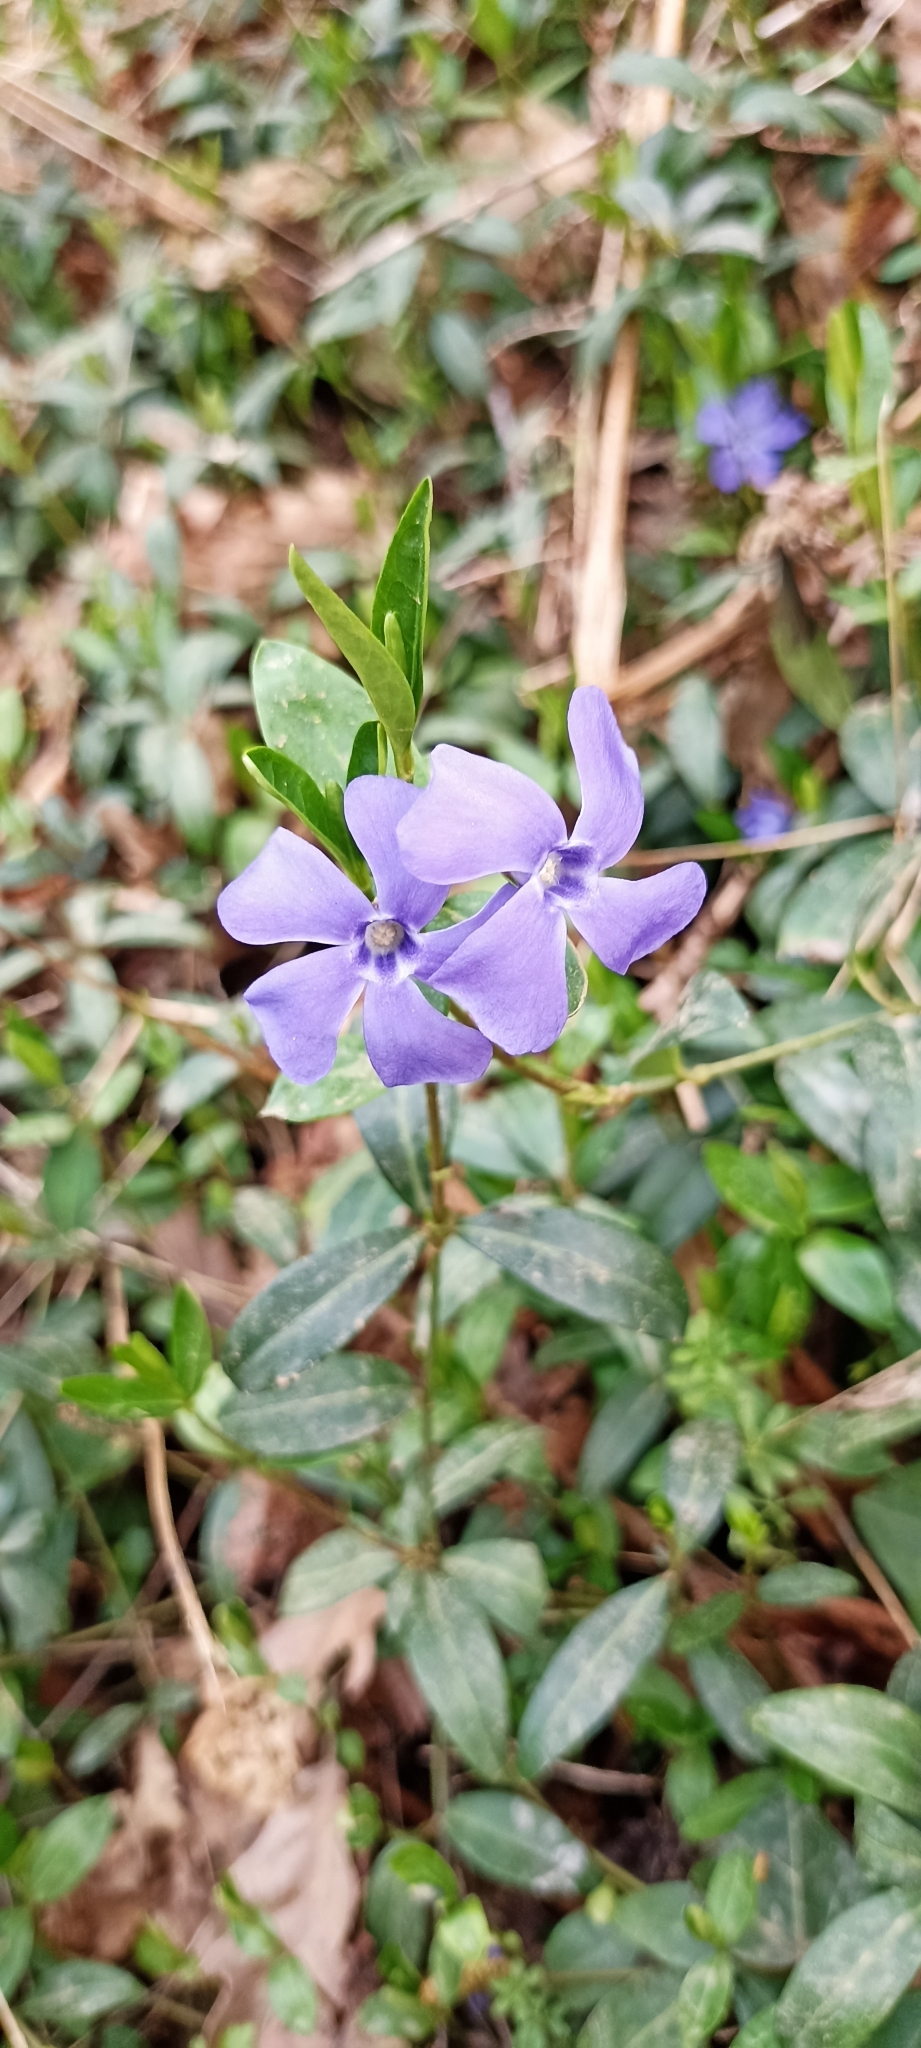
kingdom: Plantae
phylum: Tracheophyta
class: Magnoliopsida
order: Gentianales
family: Apocynaceae
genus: Vinca
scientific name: Vinca minor
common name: Lesser periwinkle
